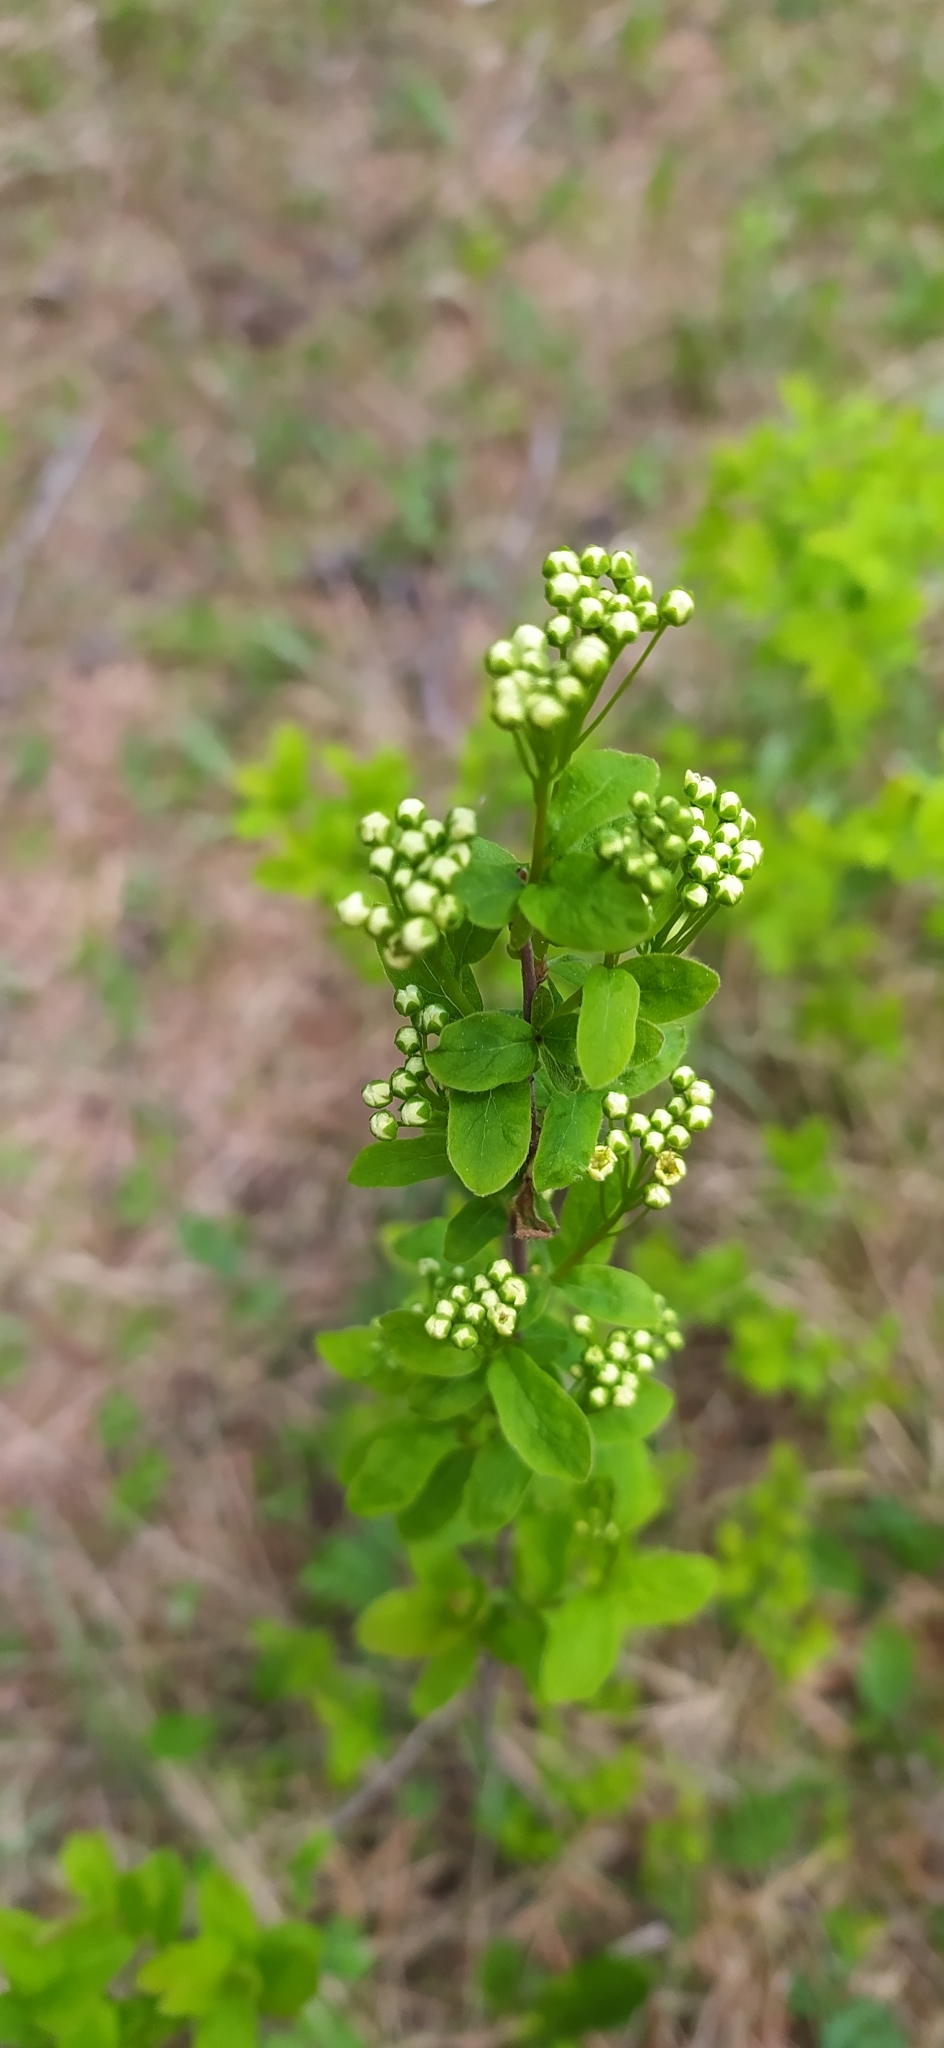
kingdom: Plantae
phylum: Tracheophyta
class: Magnoliopsida
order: Rosales
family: Rosaceae
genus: Spiraea
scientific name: Spiraea media
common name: Russian spiraea
